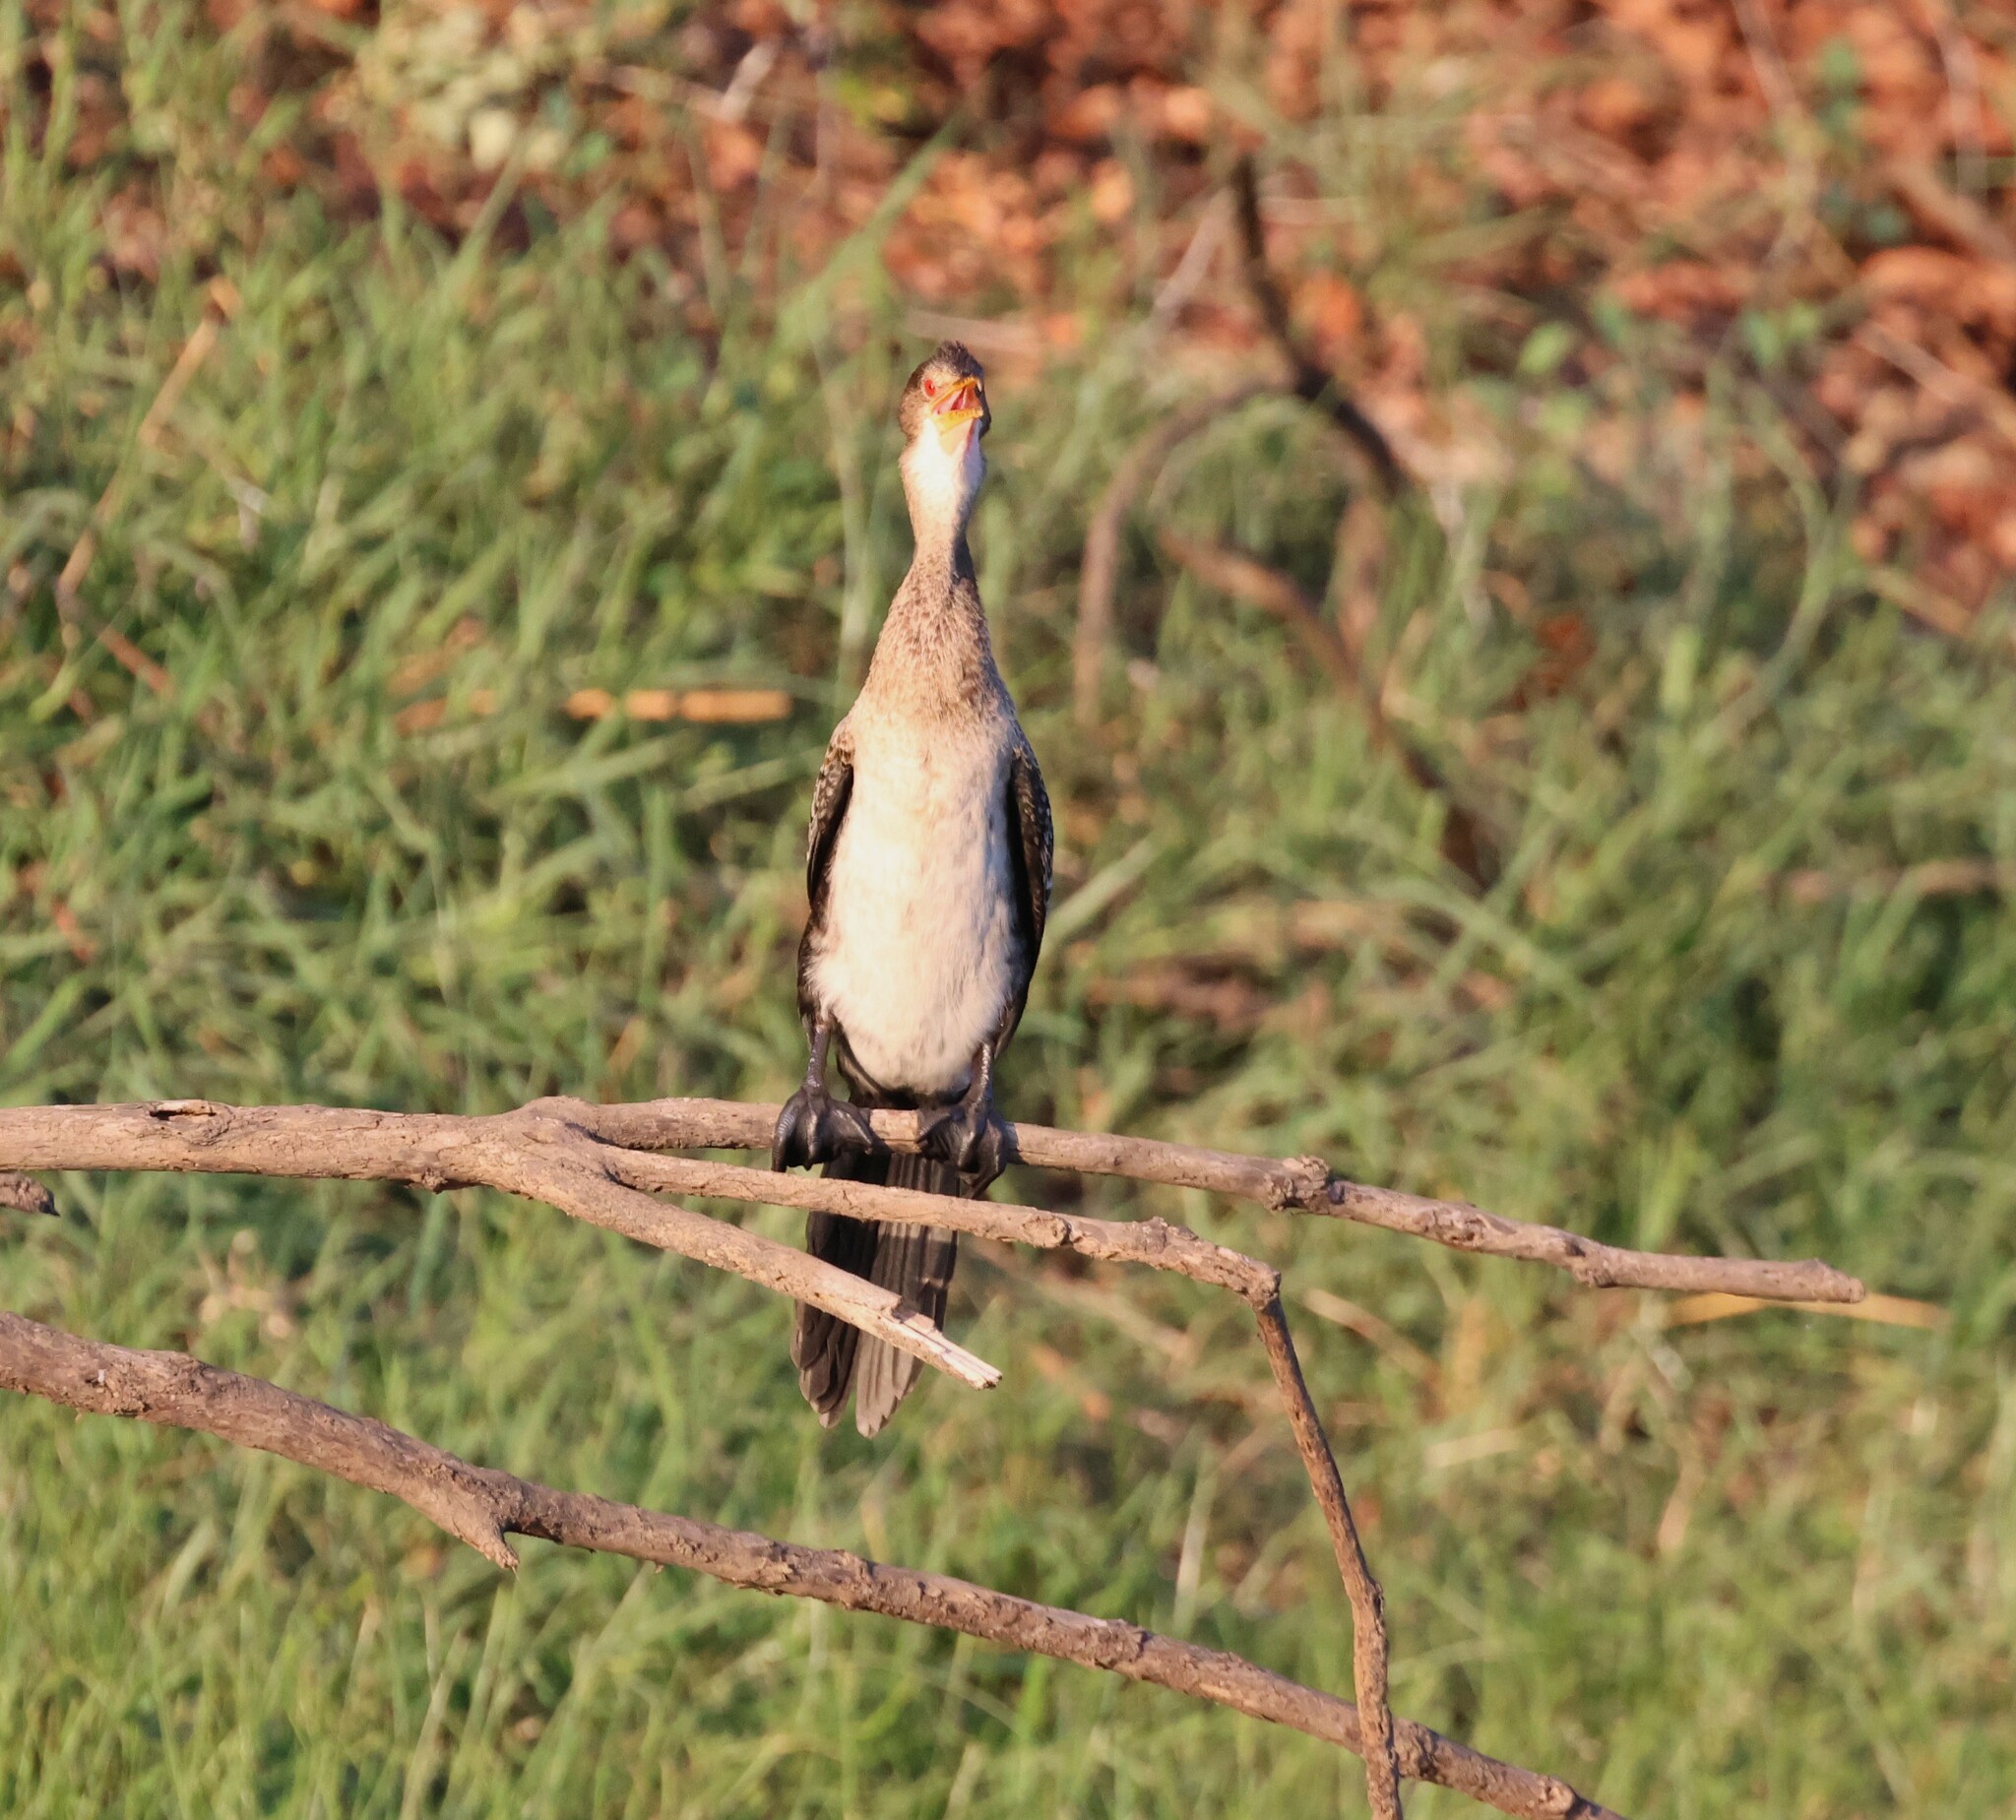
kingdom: Animalia
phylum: Chordata
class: Aves
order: Suliformes
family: Phalacrocoracidae
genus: Microcarbo
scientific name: Microcarbo africanus
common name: Long-tailed cormorant
